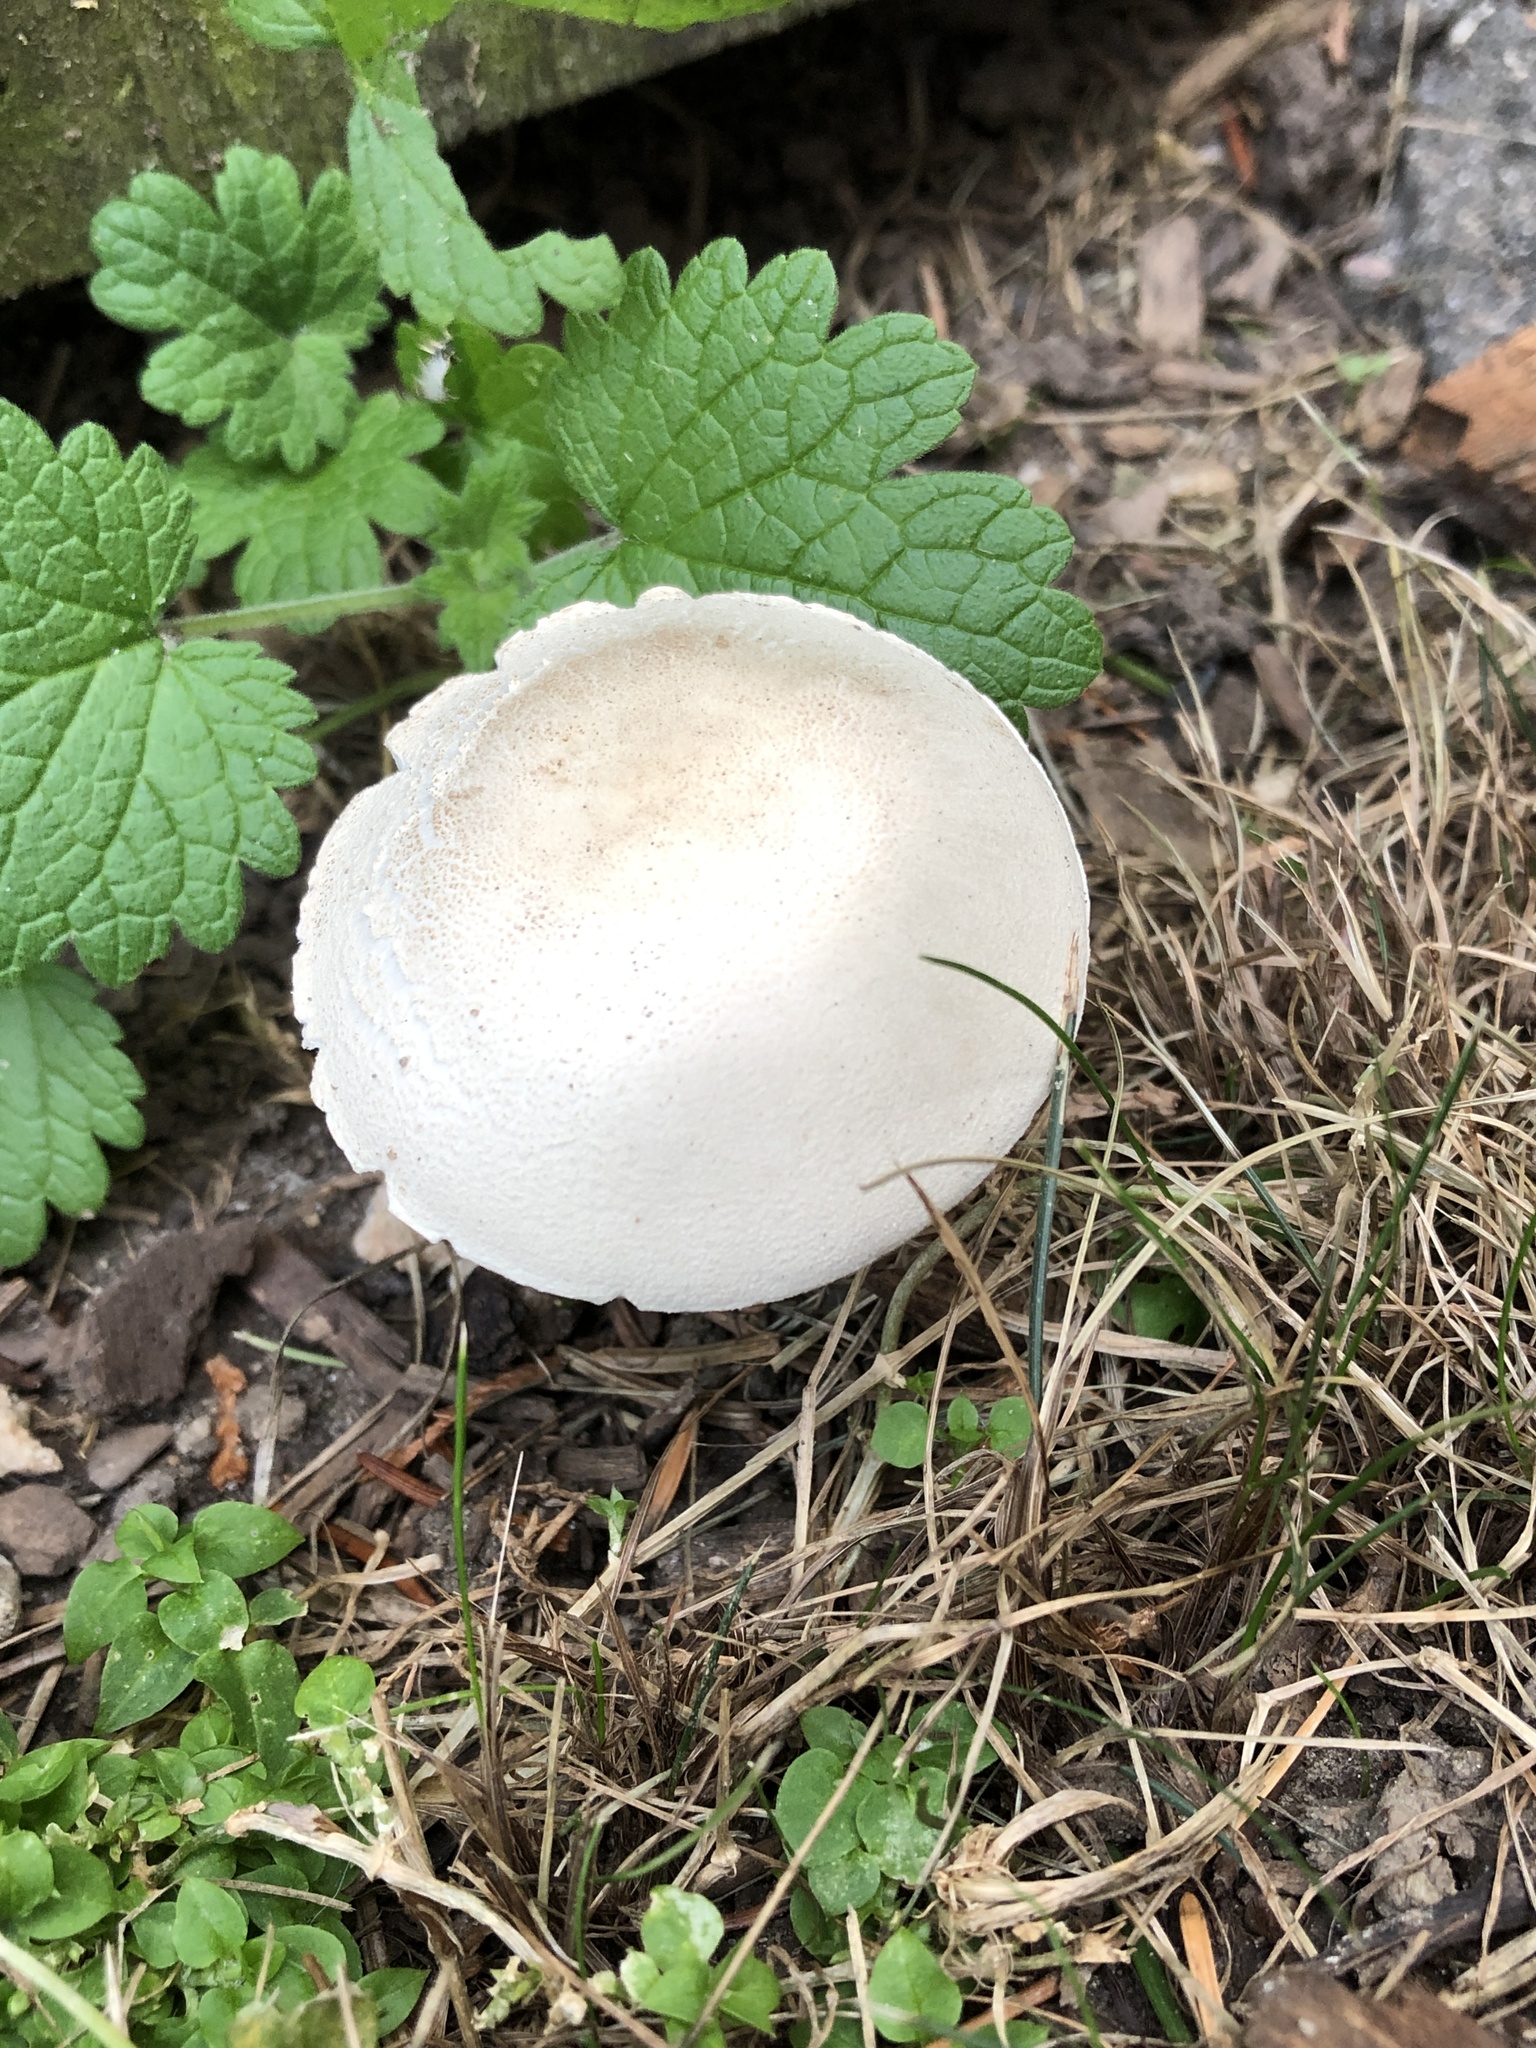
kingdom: Fungi
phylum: Basidiomycota
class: Agaricomycetes
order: Agaricales
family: Agaricaceae
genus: Leucoagaricus
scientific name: Leucoagaricus leucothites
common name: White dapperling
